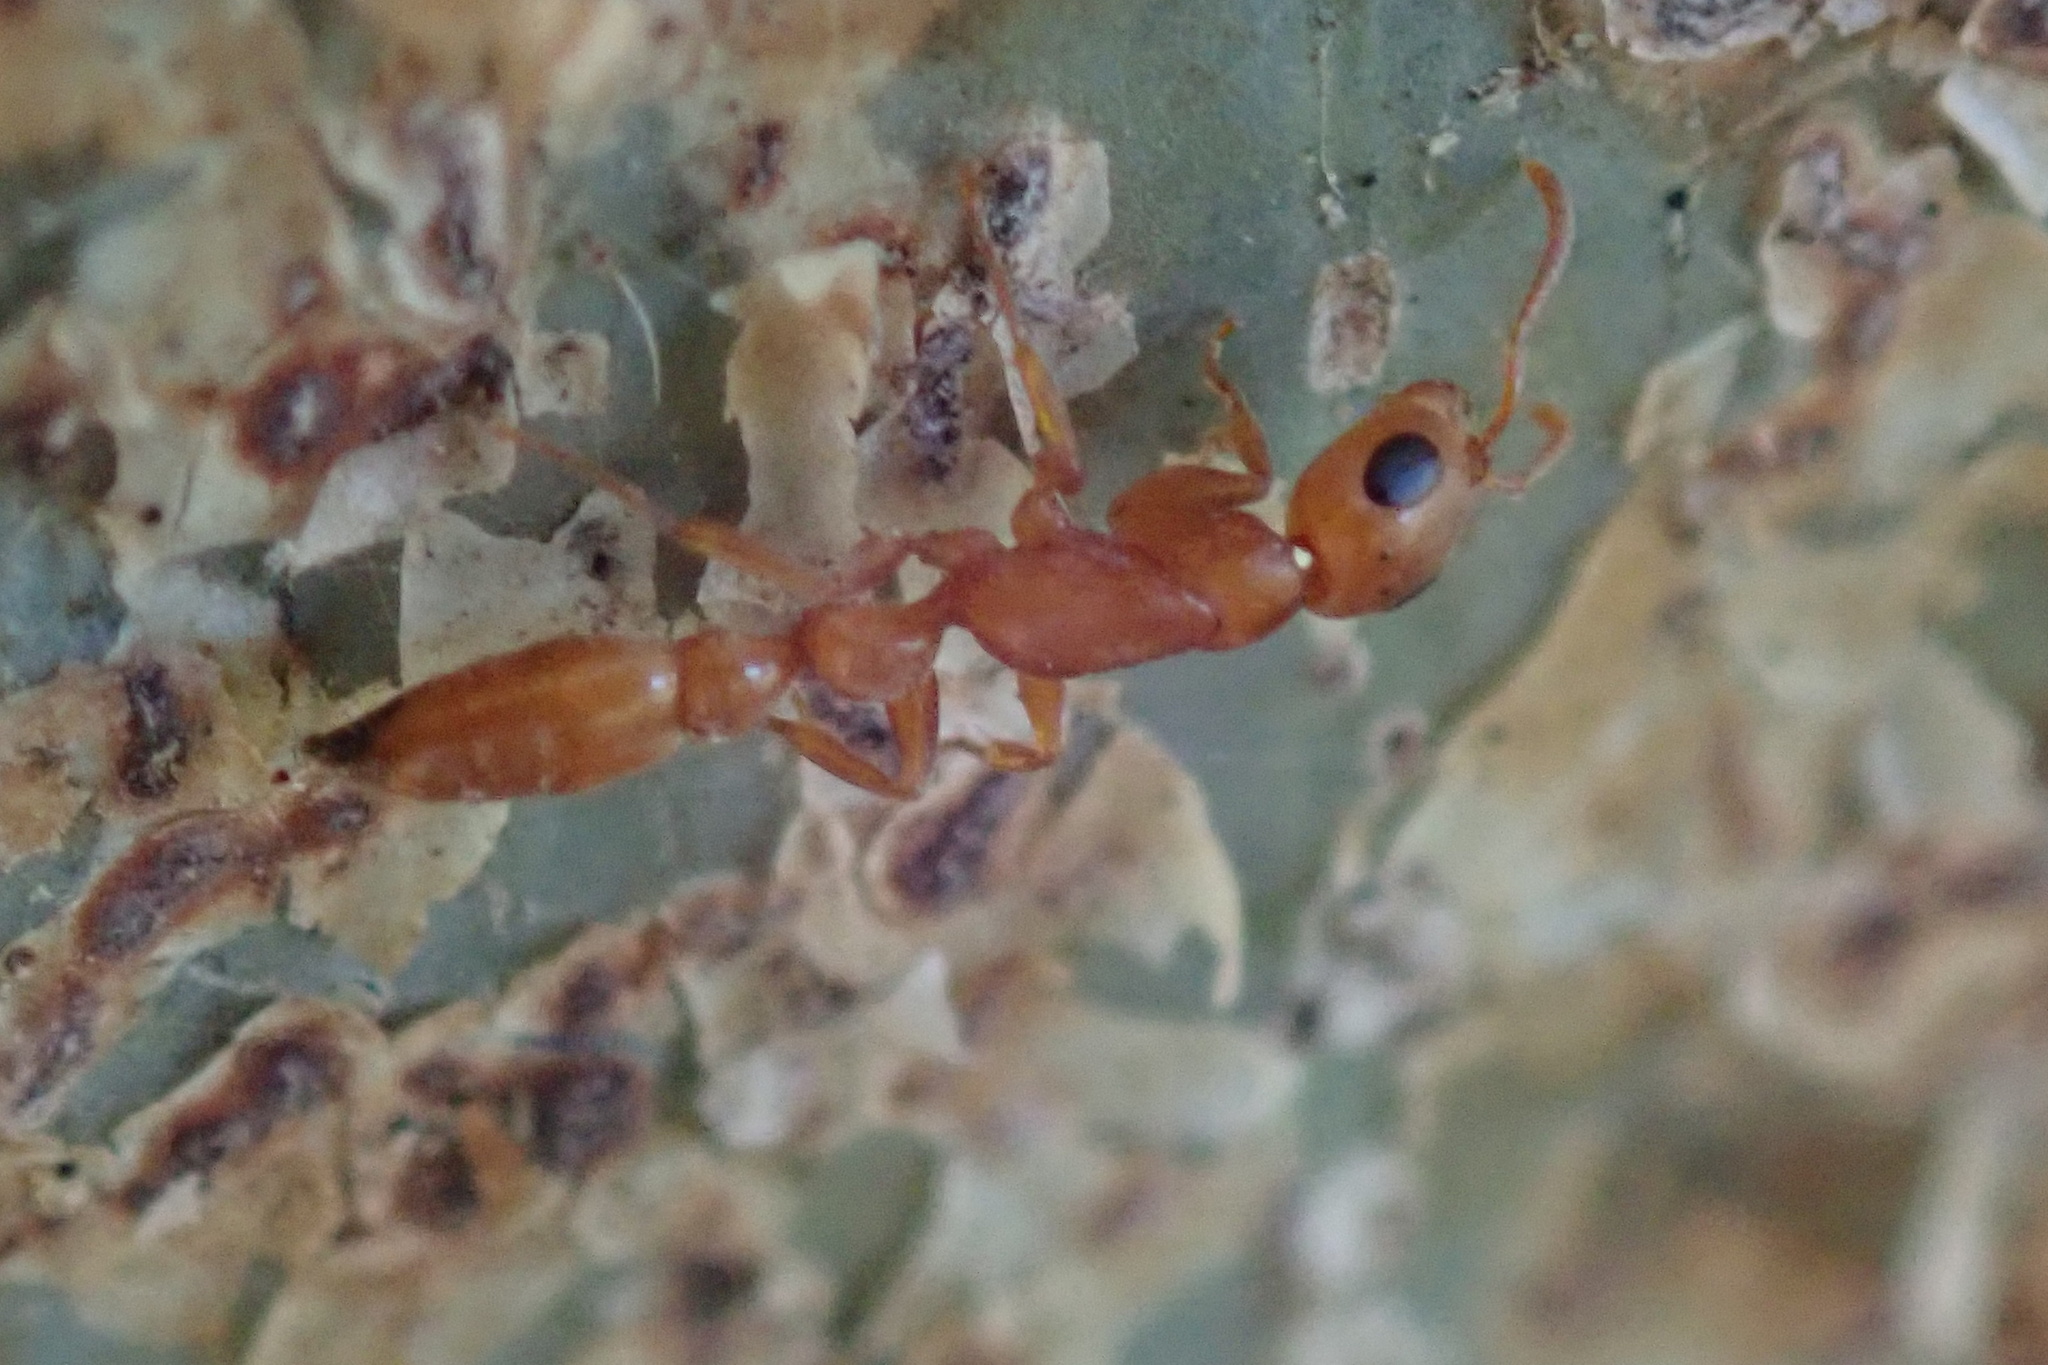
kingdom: Animalia
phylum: Arthropoda
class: Insecta
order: Hymenoptera
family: Formicidae
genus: Tetraponera
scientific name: Tetraponera natalensis
